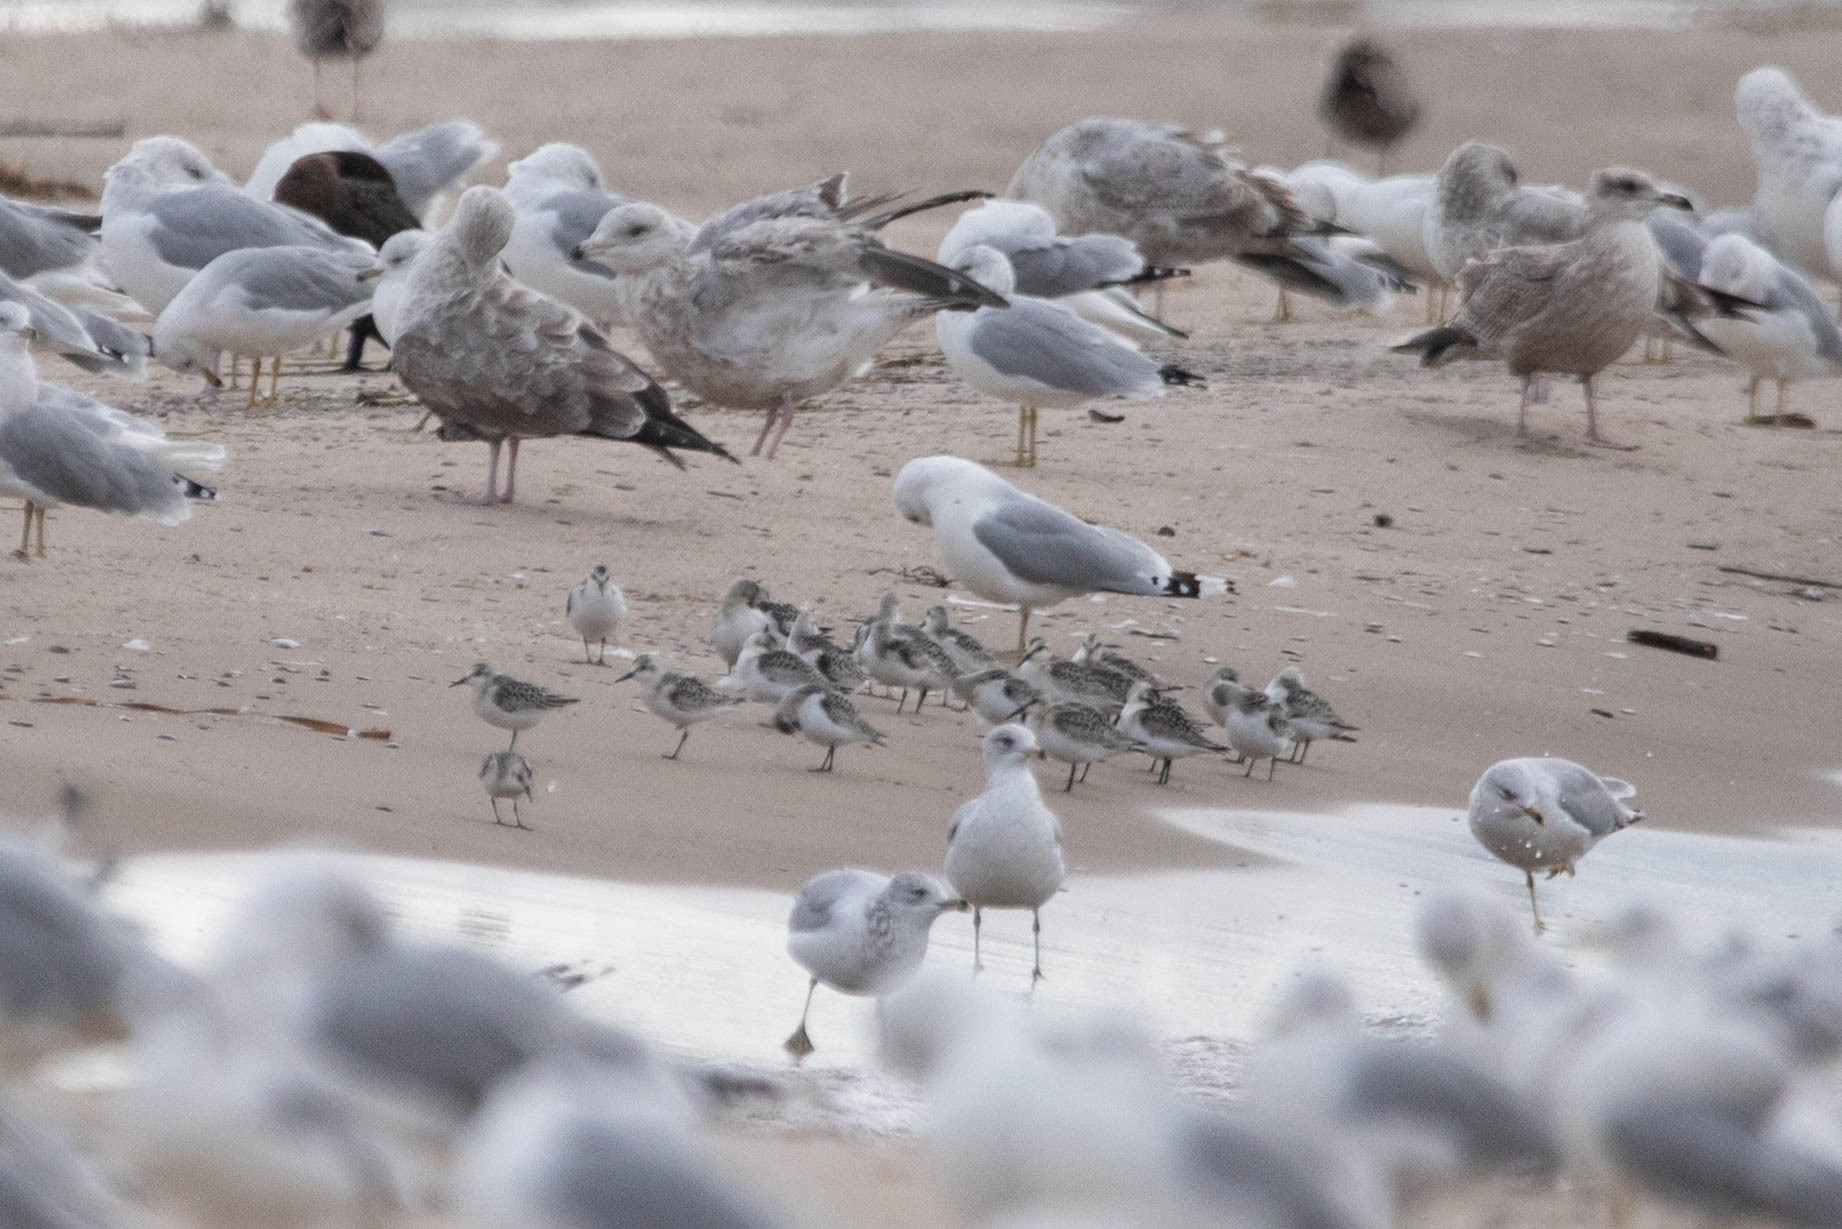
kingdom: Animalia
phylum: Chordata
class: Aves
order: Charadriiformes
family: Scolopacidae
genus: Calidris
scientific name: Calidris alba
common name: Sanderling
